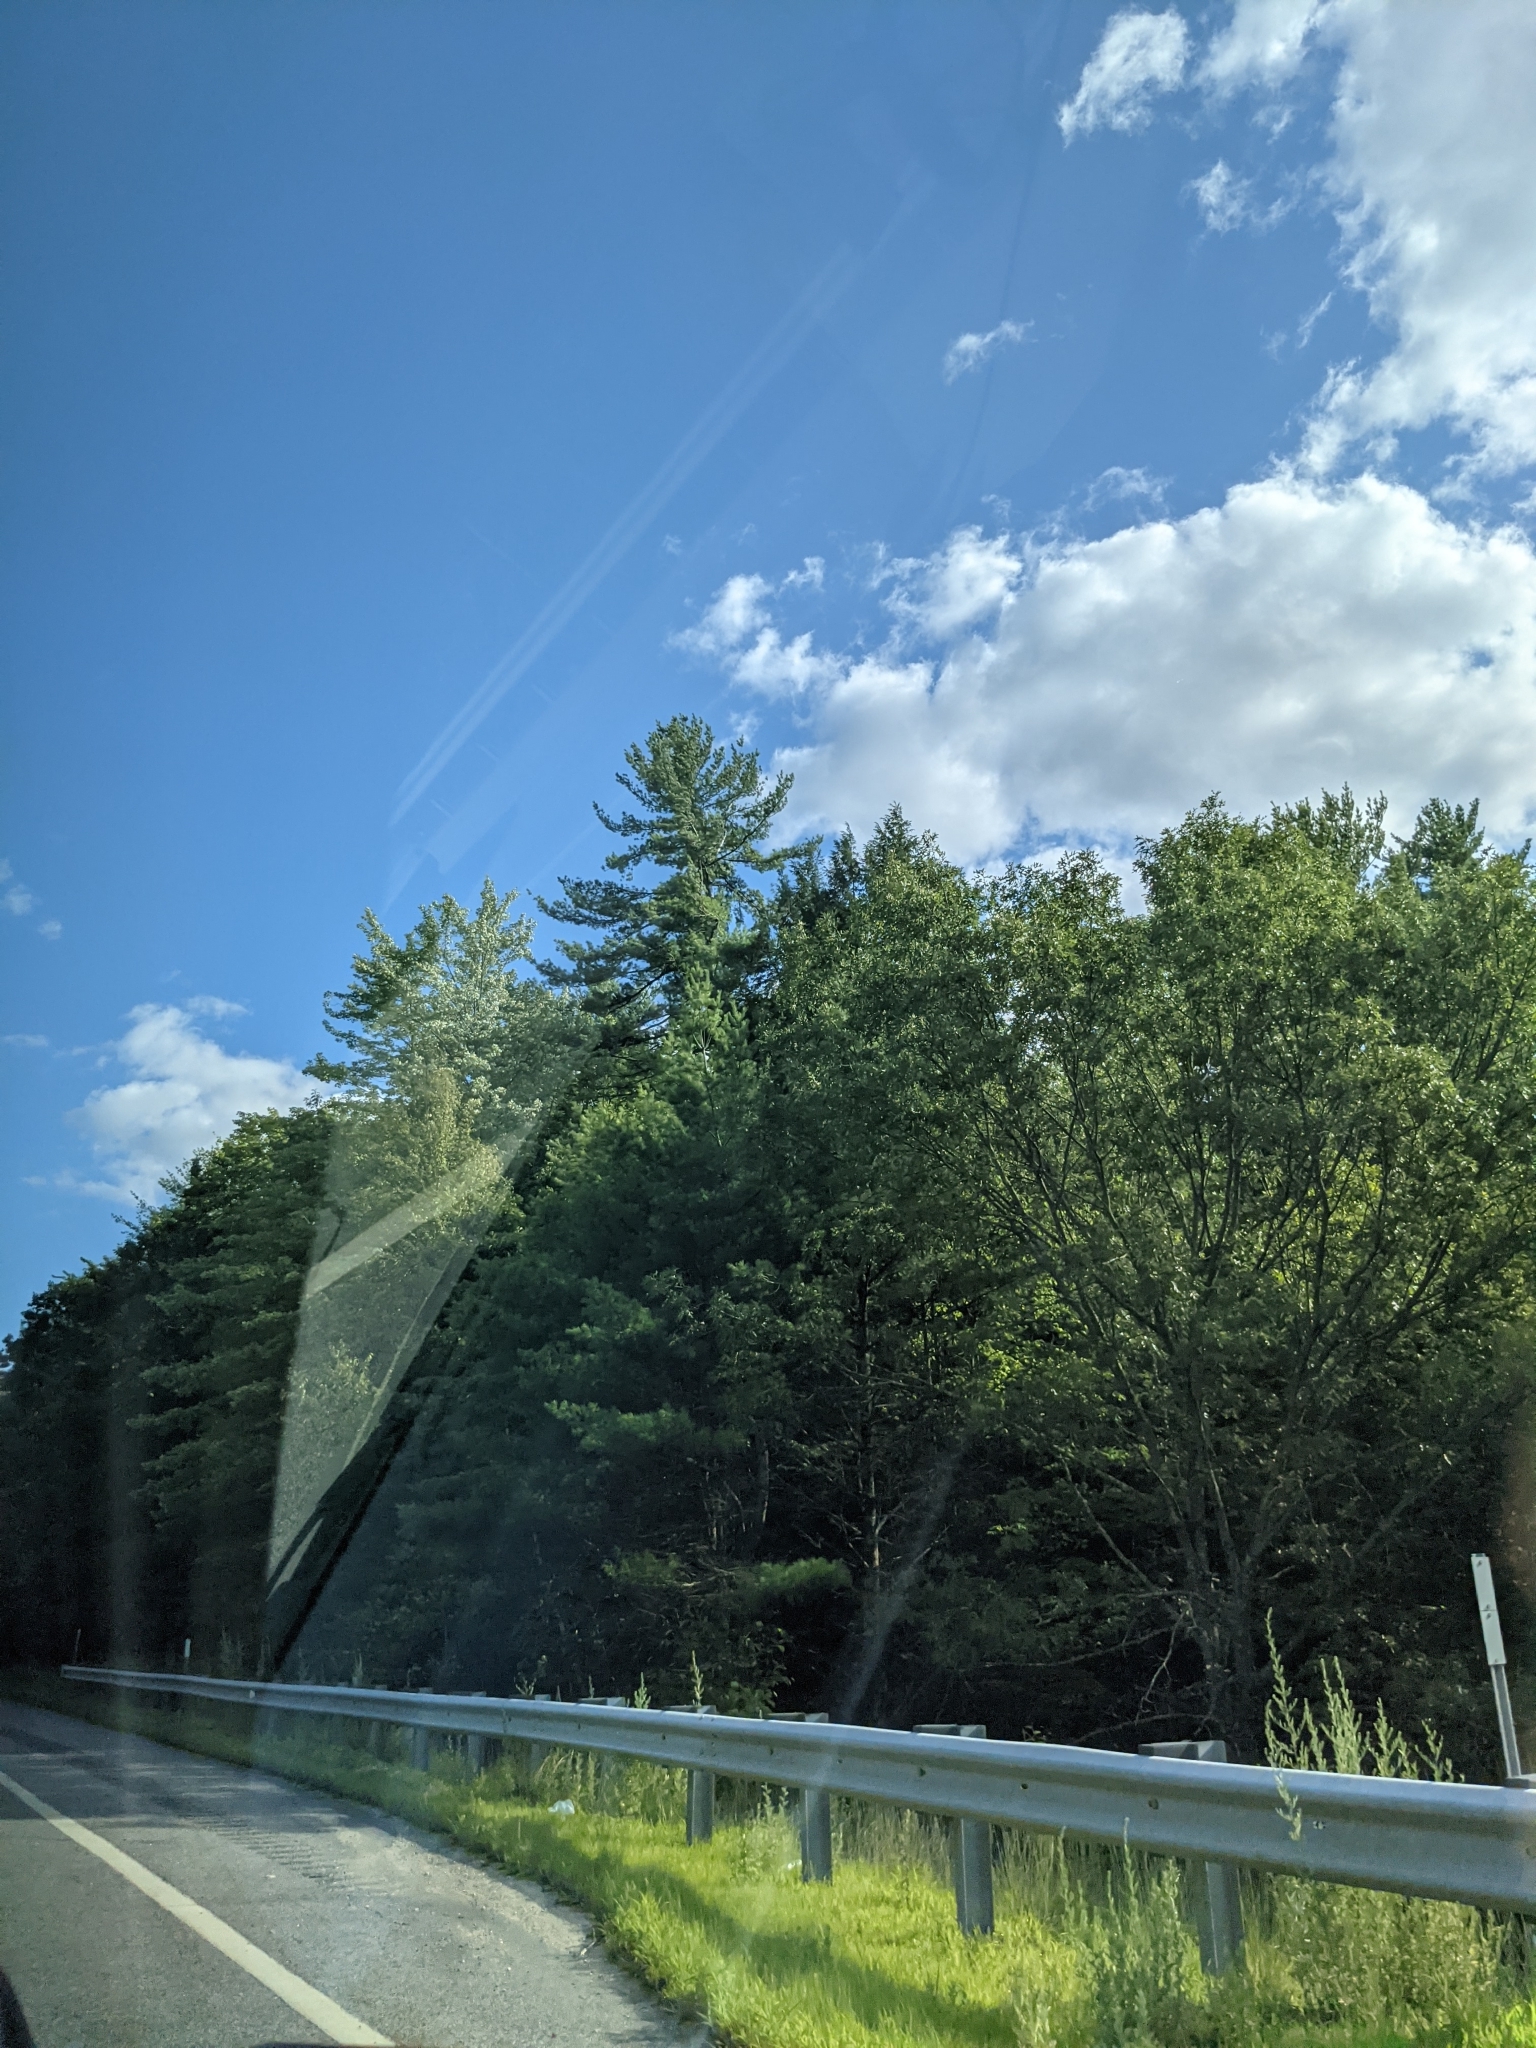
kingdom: Plantae
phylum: Tracheophyta
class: Pinopsida
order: Pinales
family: Pinaceae
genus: Pinus
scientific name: Pinus strobus
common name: Weymouth pine
